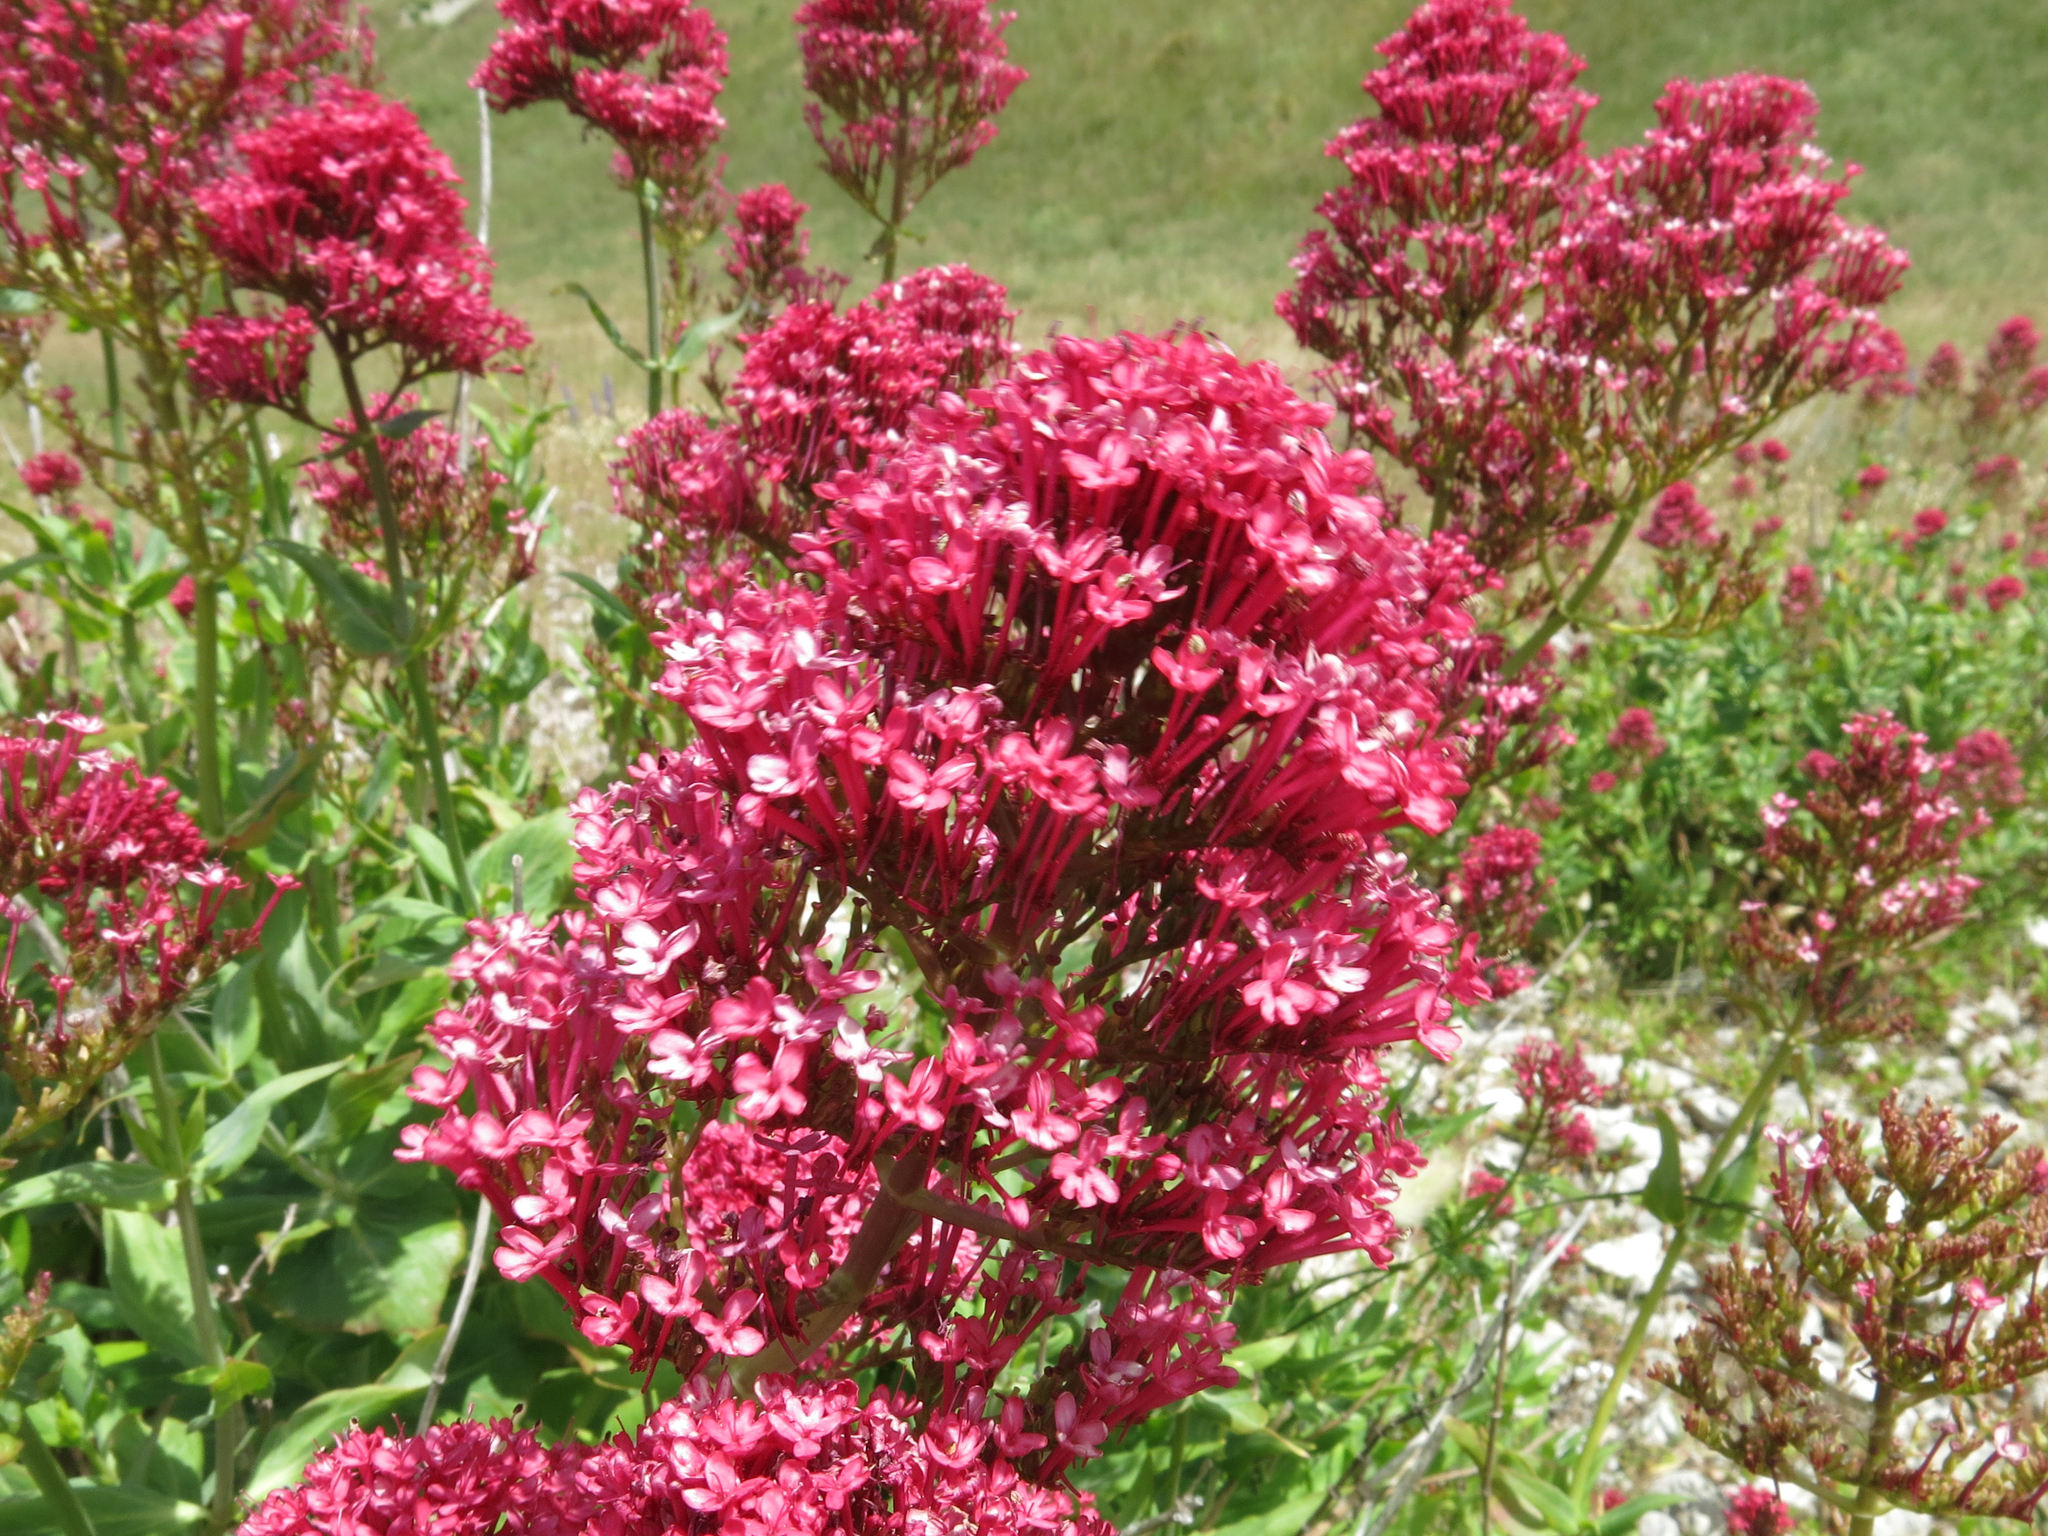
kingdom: Plantae
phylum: Tracheophyta
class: Magnoliopsida
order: Dipsacales
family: Caprifoliaceae
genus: Centranthus
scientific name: Centranthus ruber
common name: Red valerian
